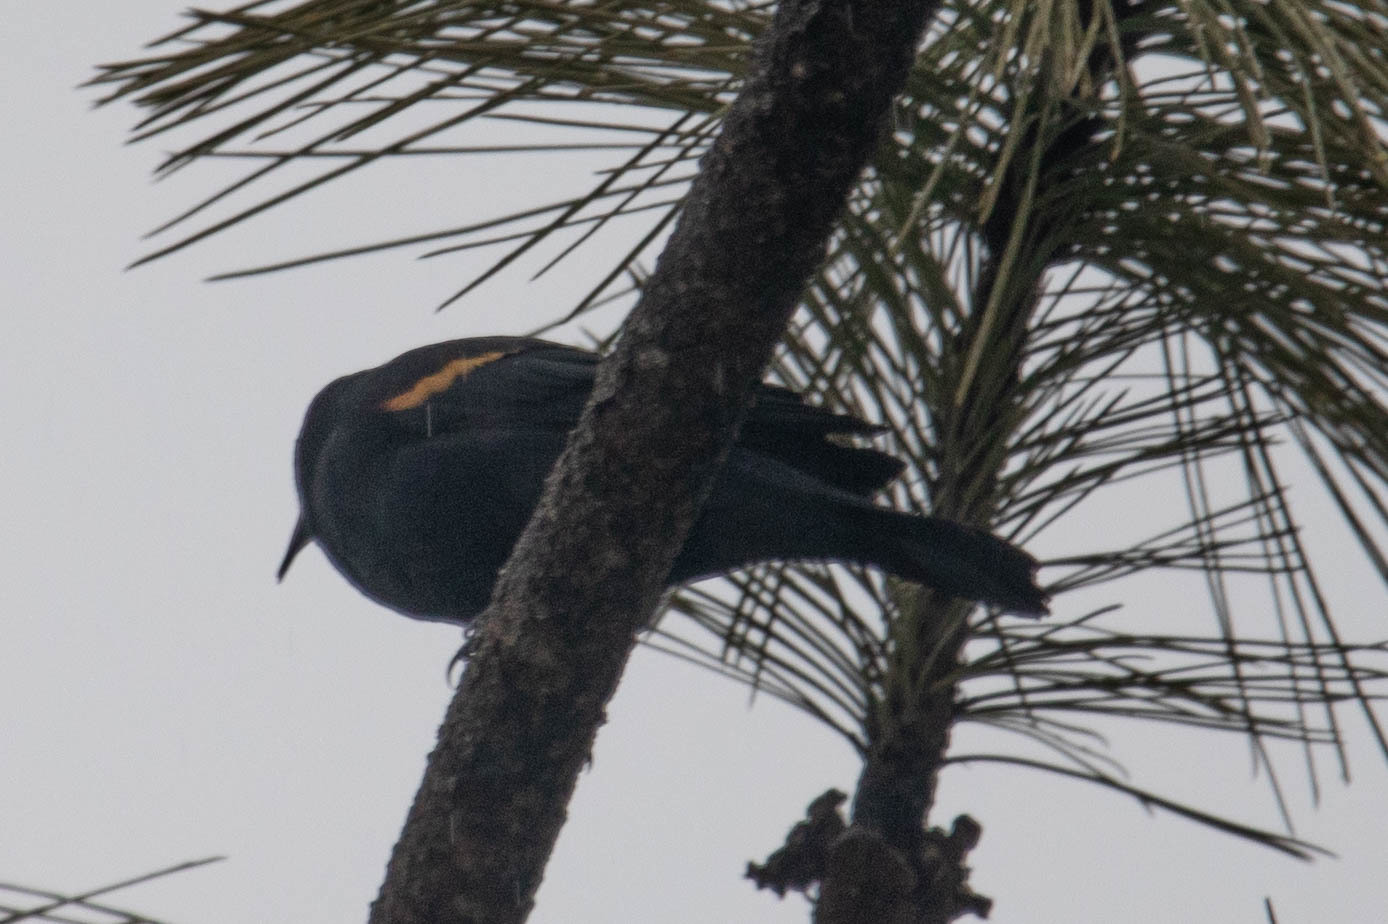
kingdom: Animalia
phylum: Chordata
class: Aves
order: Passeriformes
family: Icteridae
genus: Agelaius
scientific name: Agelaius phoeniceus
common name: Red-winged blackbird
